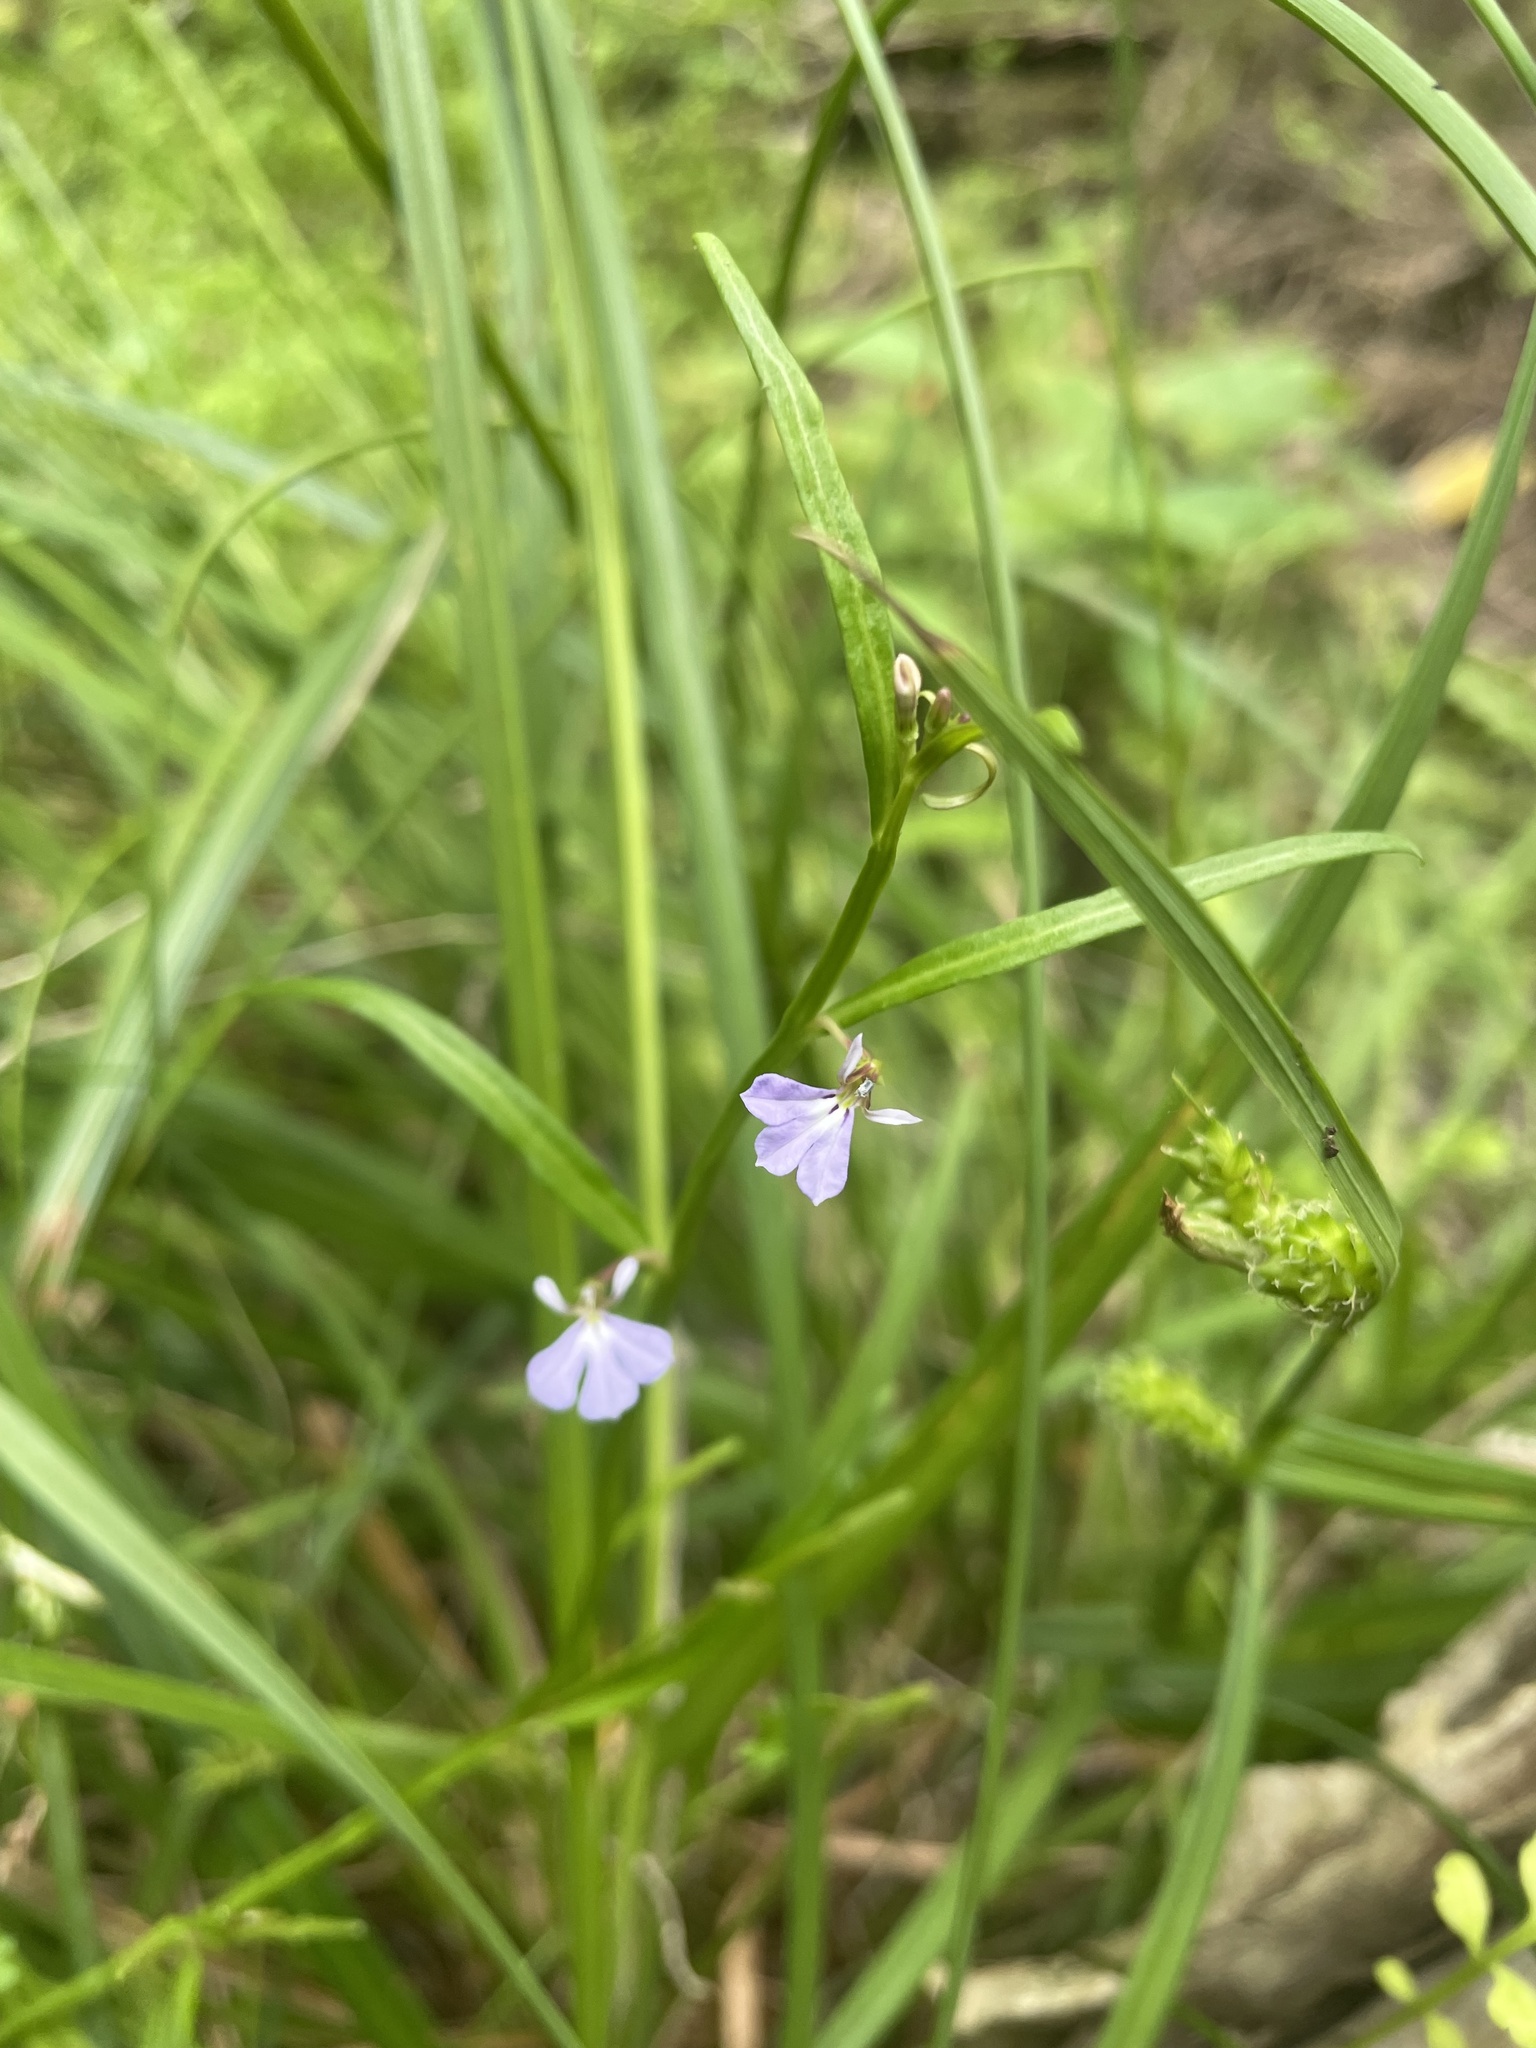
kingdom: Plantae
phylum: Tracheophyta
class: Magnoliopsida
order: Asterales
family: Campanulaceae
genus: Lobelia
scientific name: Lobelia anceps
